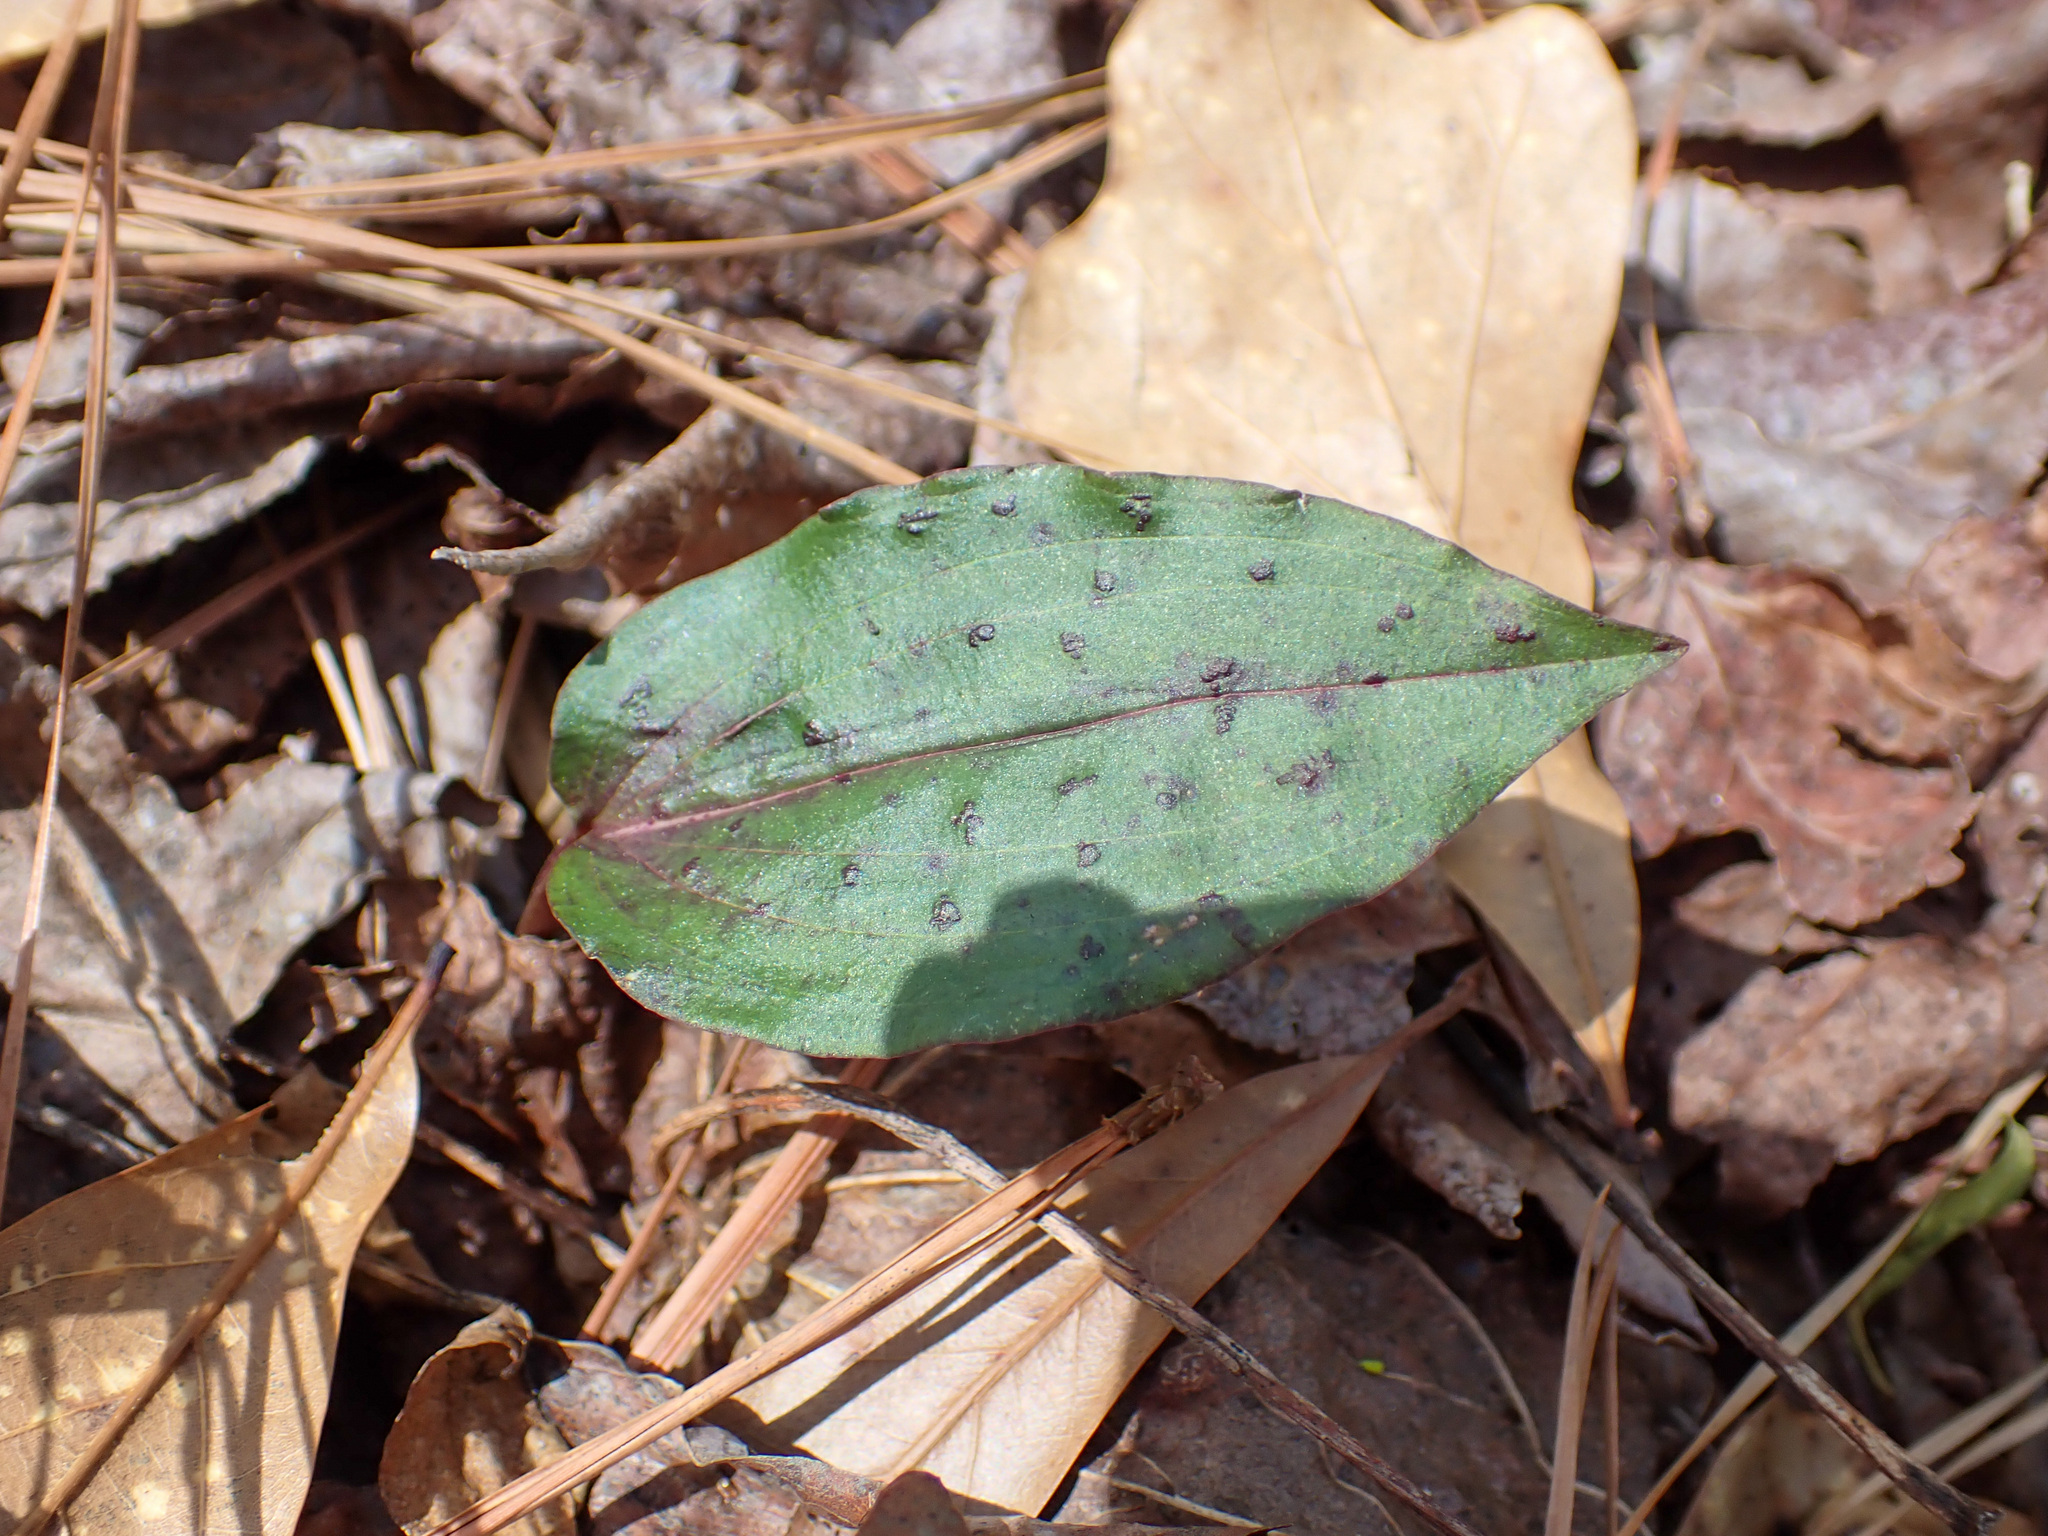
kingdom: Plantae
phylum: Tracheophyta
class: Liliopsida
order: Asparagales
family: Orchidaceae
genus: Tipularia
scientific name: Tipularia discolor
